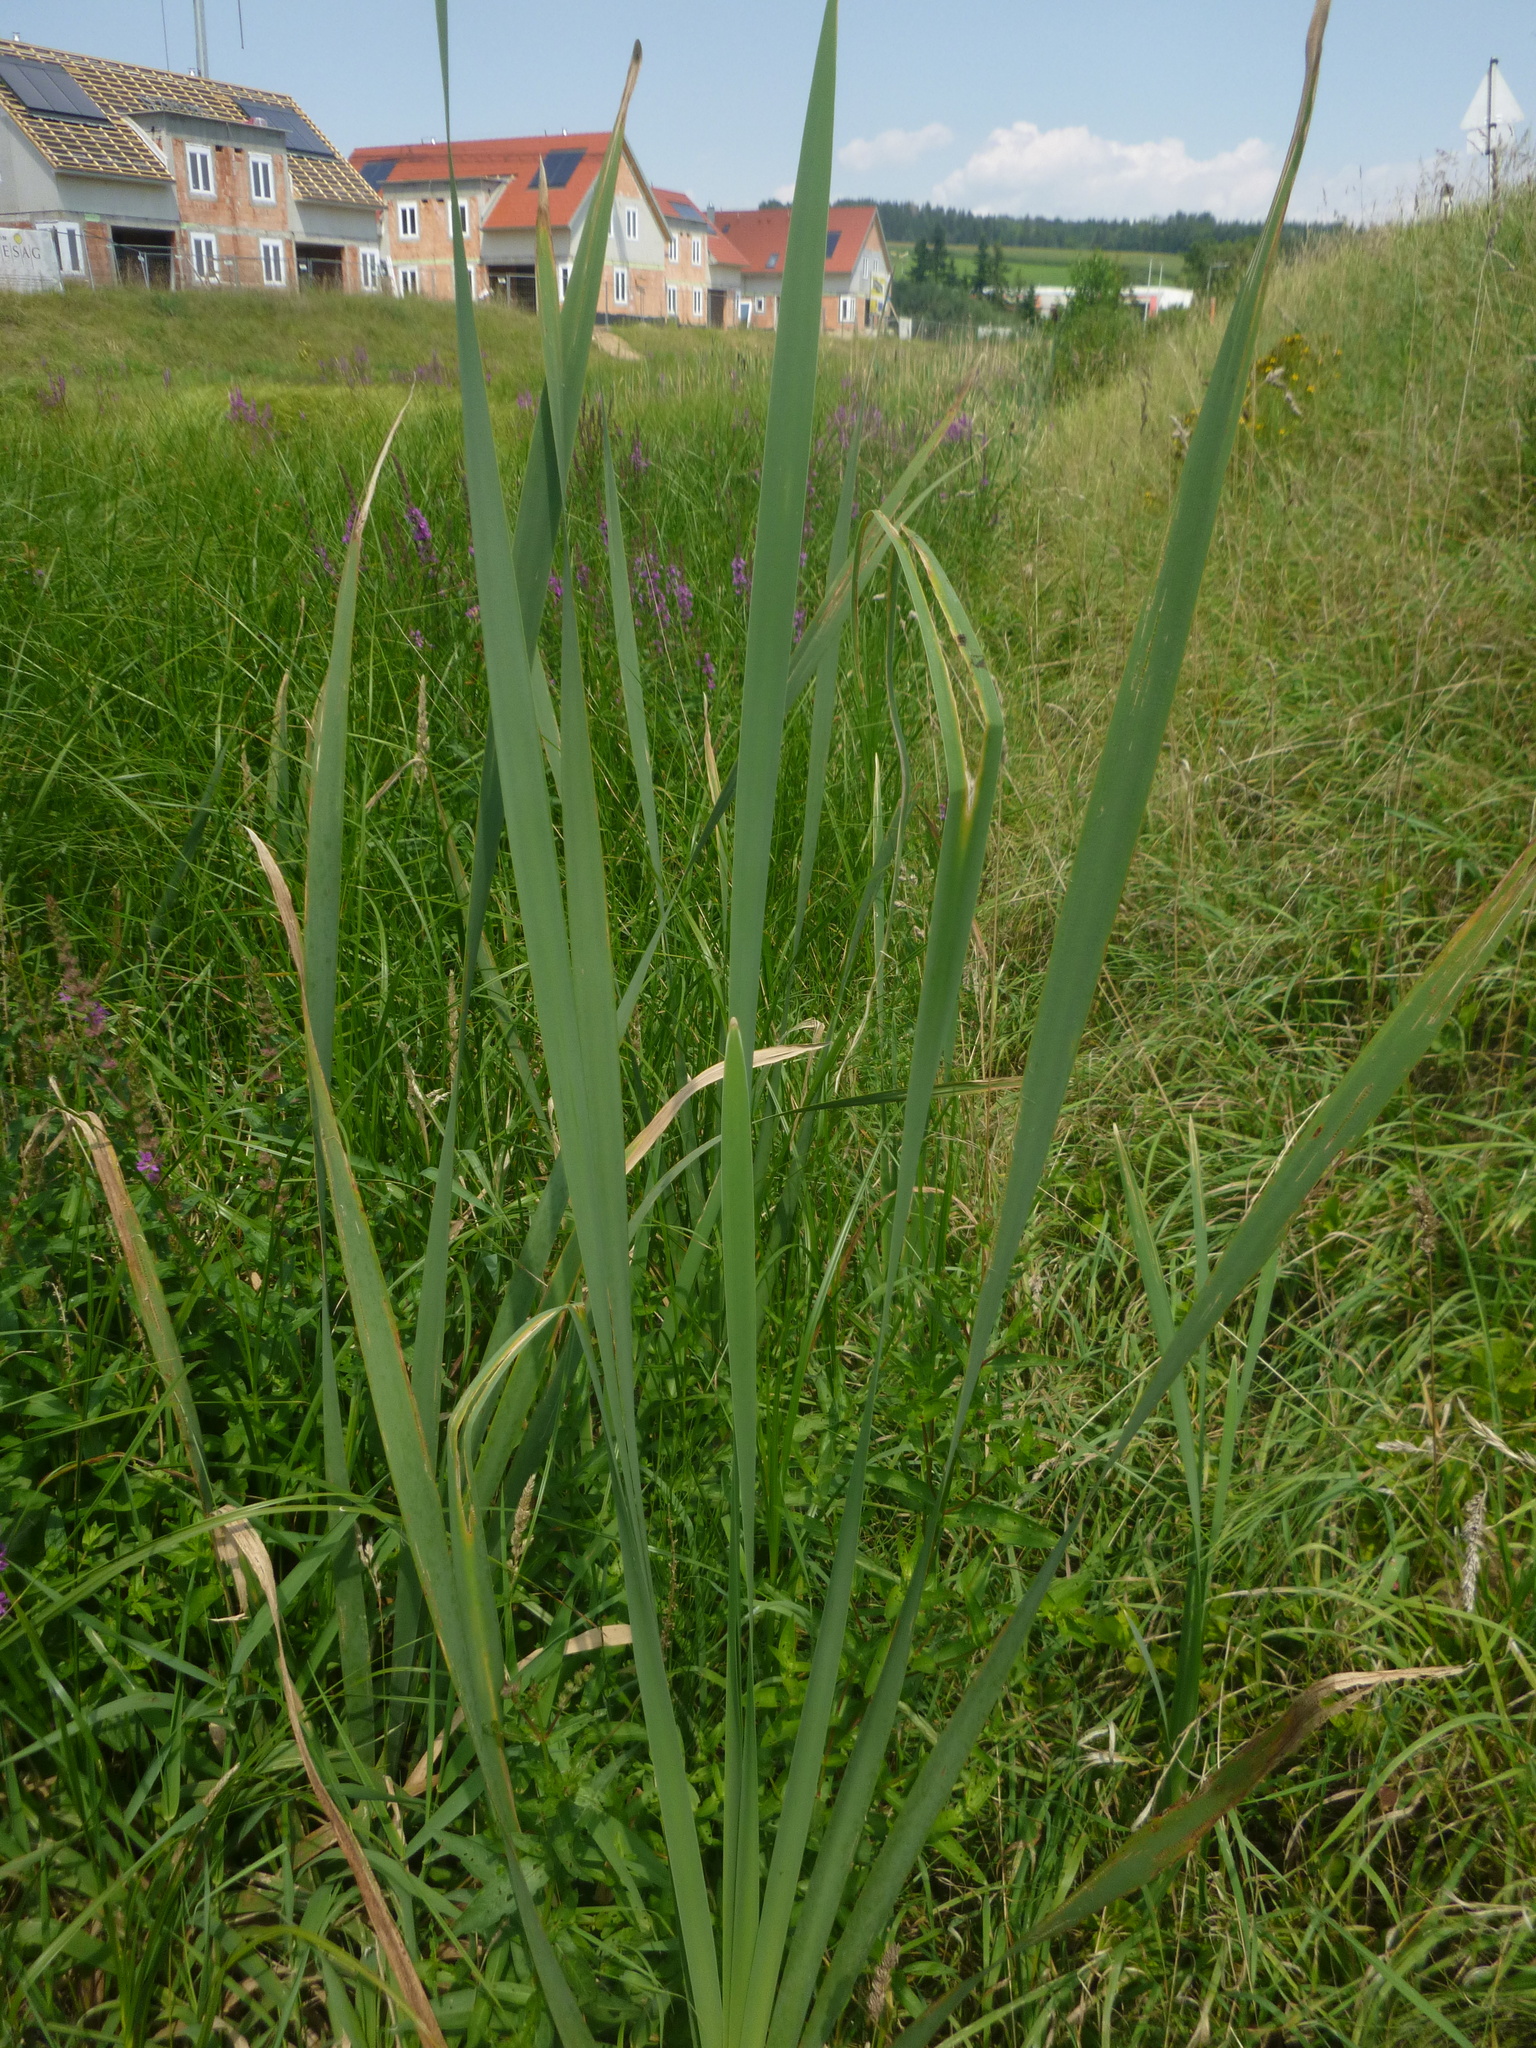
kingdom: Plantae
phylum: Tracheophyta
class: Liliopsida
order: Poales
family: Typhaceae
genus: Typha
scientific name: Typha latifolia
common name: Broadleaf cattail
